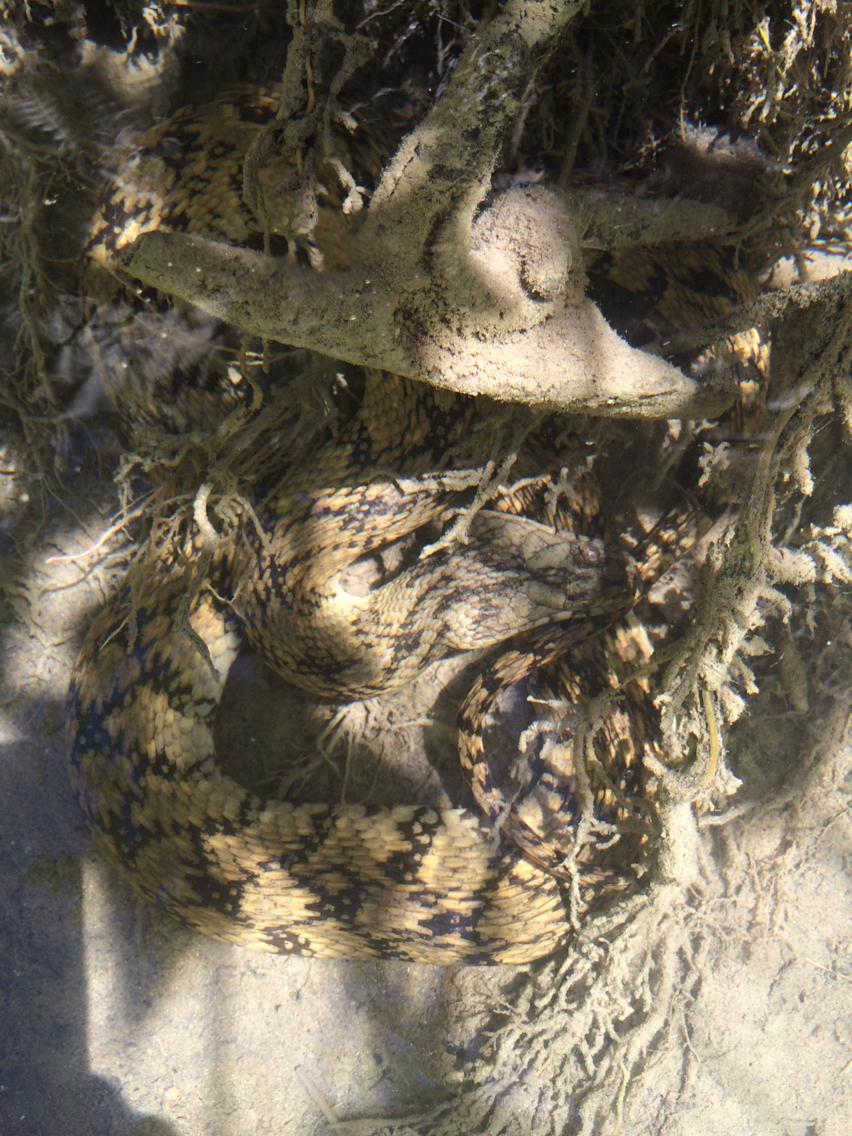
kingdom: Animalia
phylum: Chordata
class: Squamata
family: Colubridae
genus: Nerodia
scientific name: Nerodia rhombifer
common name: Diamondback water snake
